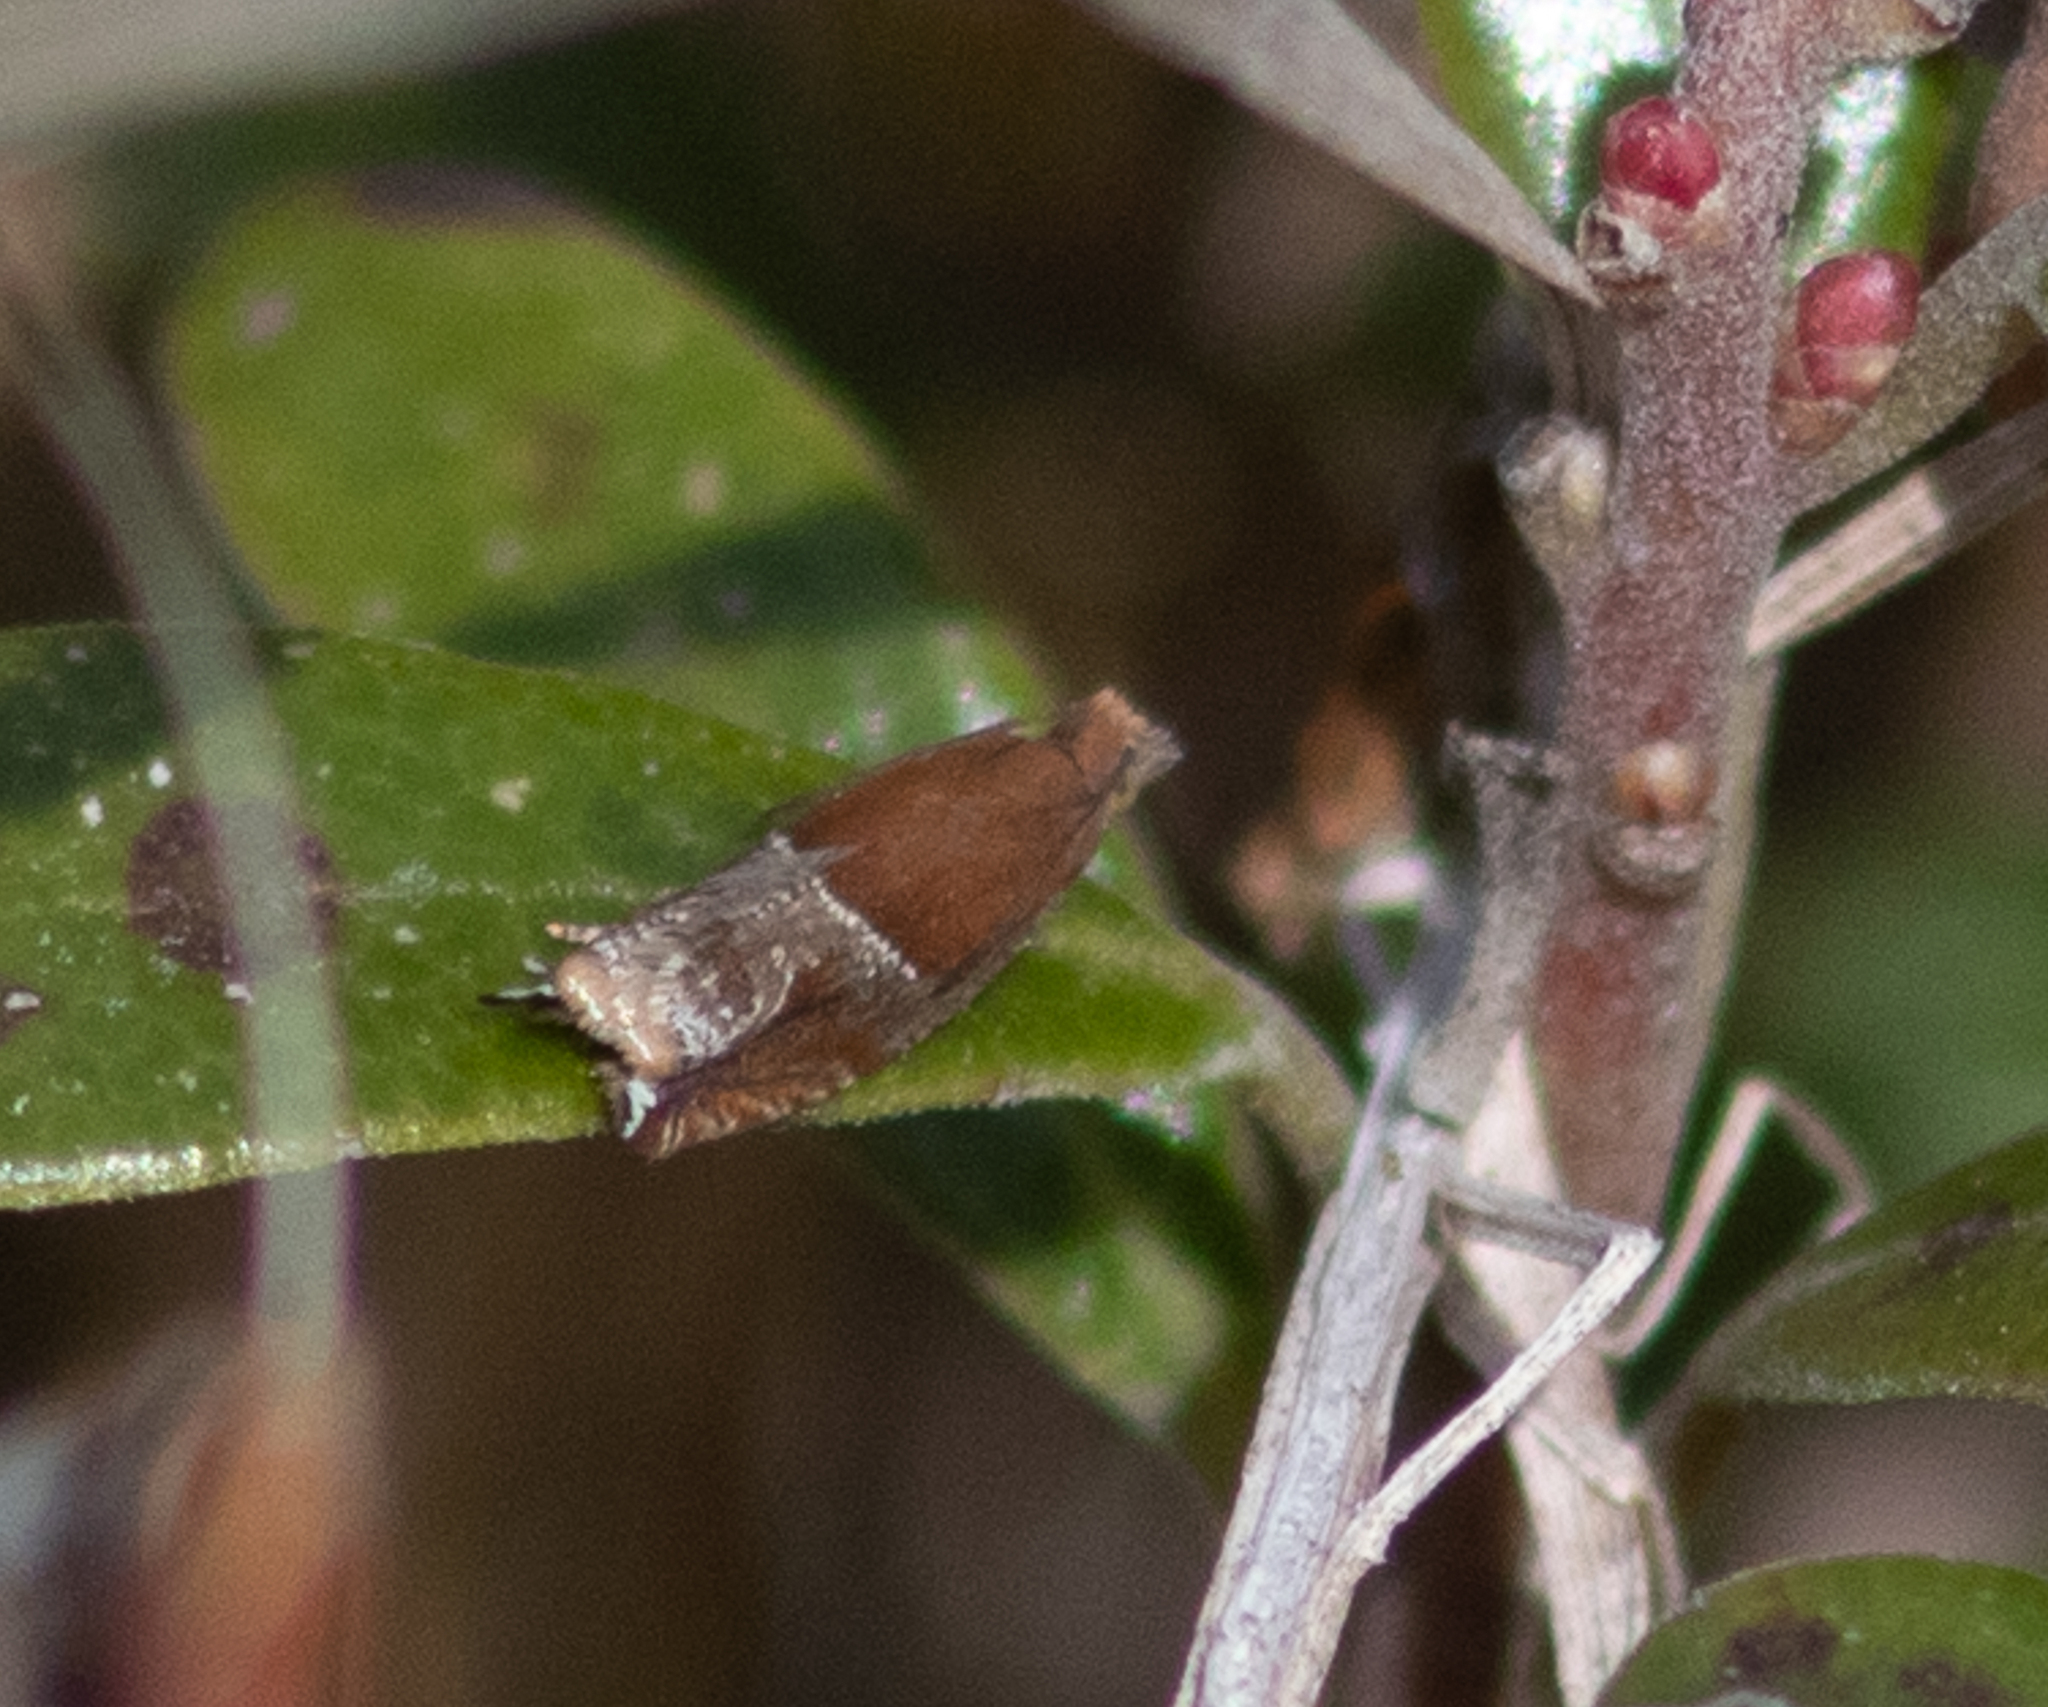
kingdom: Animalia
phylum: Arthropoda
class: Insecta
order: Lepidoptera
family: Tortricidae
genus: Ancylis
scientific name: Ancylis comptana
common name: Little roller
